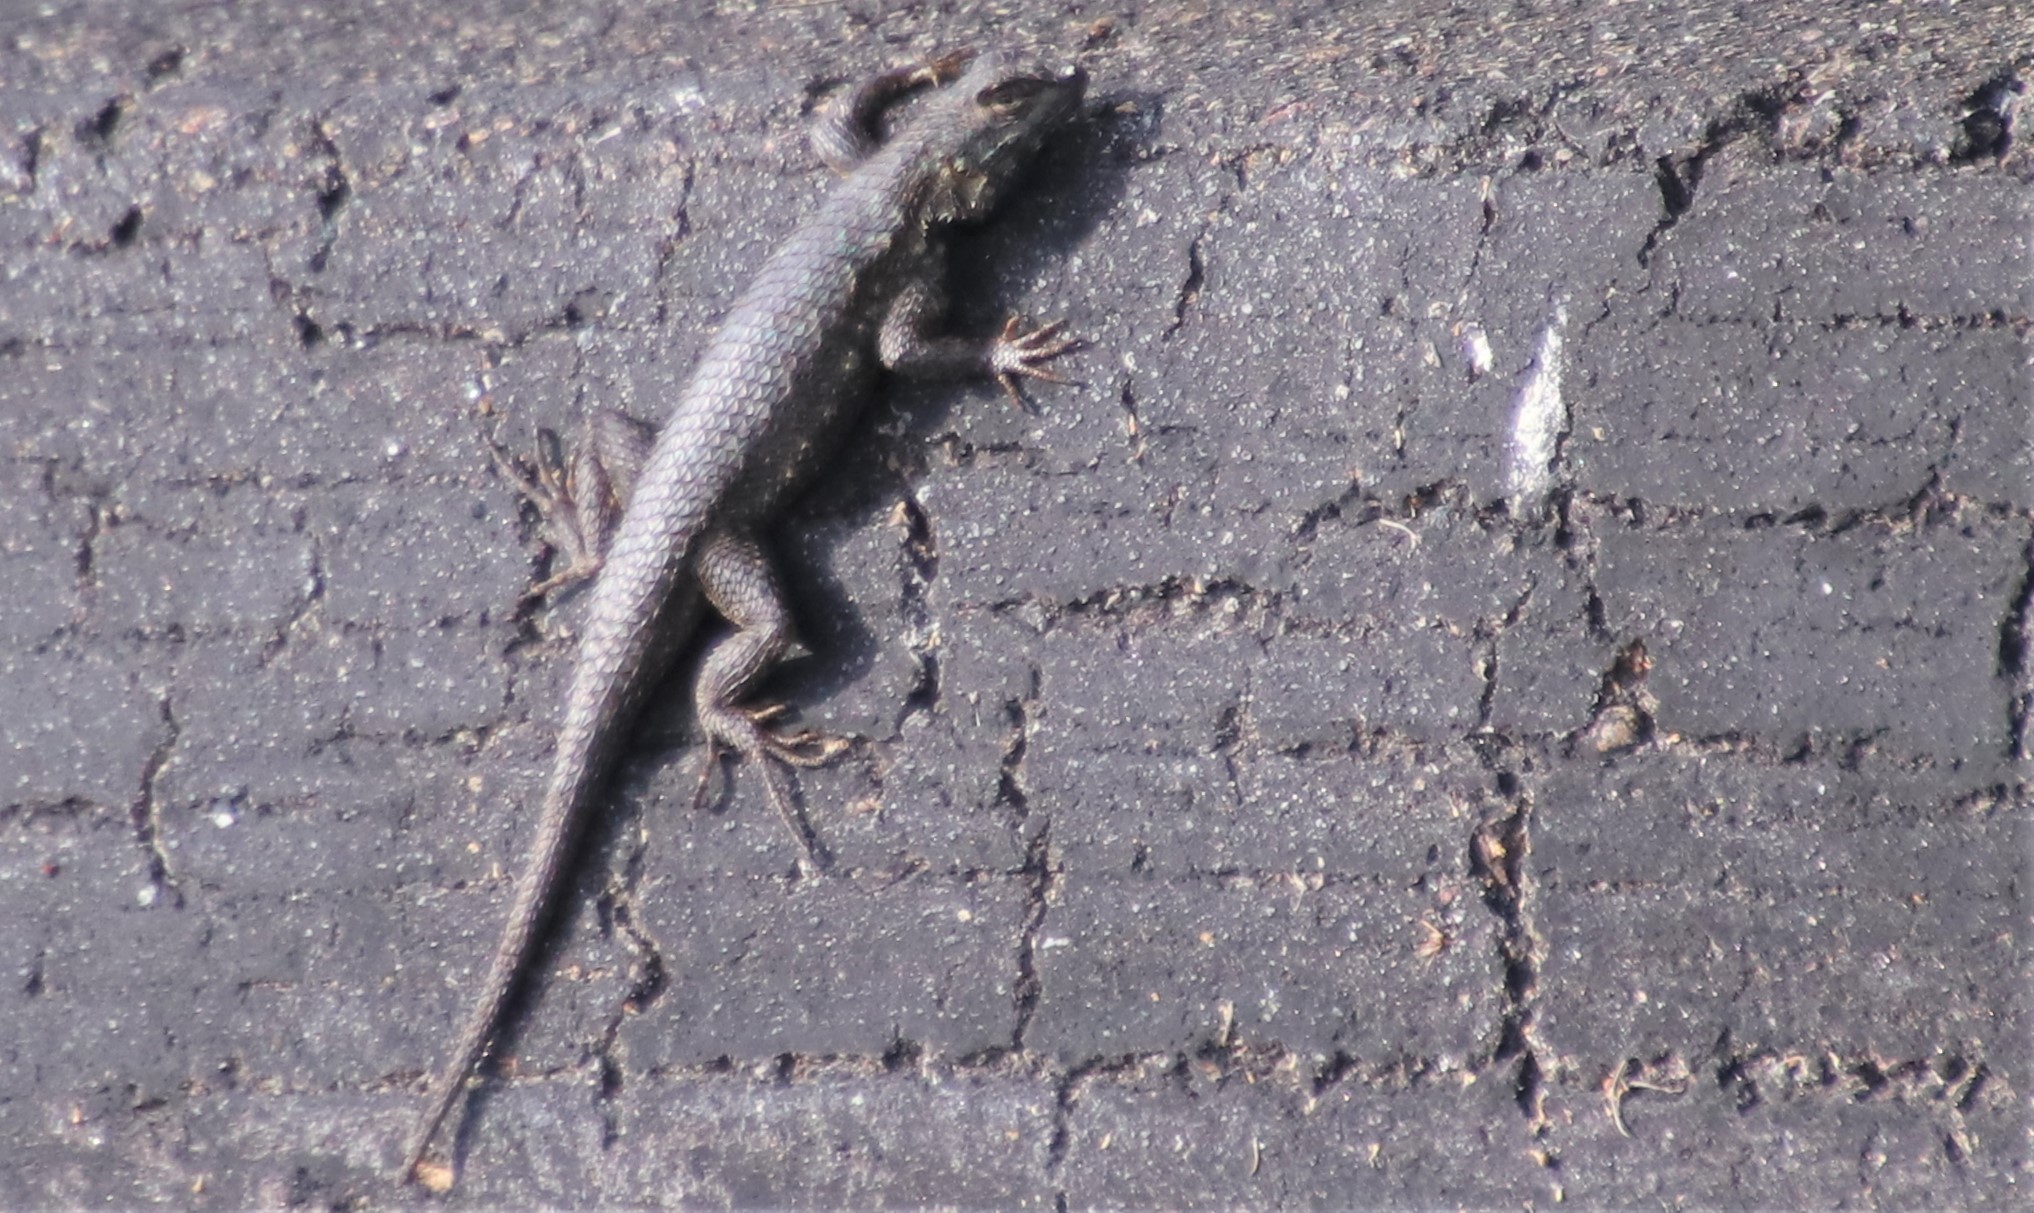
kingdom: Animalia
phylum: Chordata
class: Squamata
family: Phrynosomatidae
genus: Sceloporus
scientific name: Sceloporus occidentalis
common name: Western fence lizard
